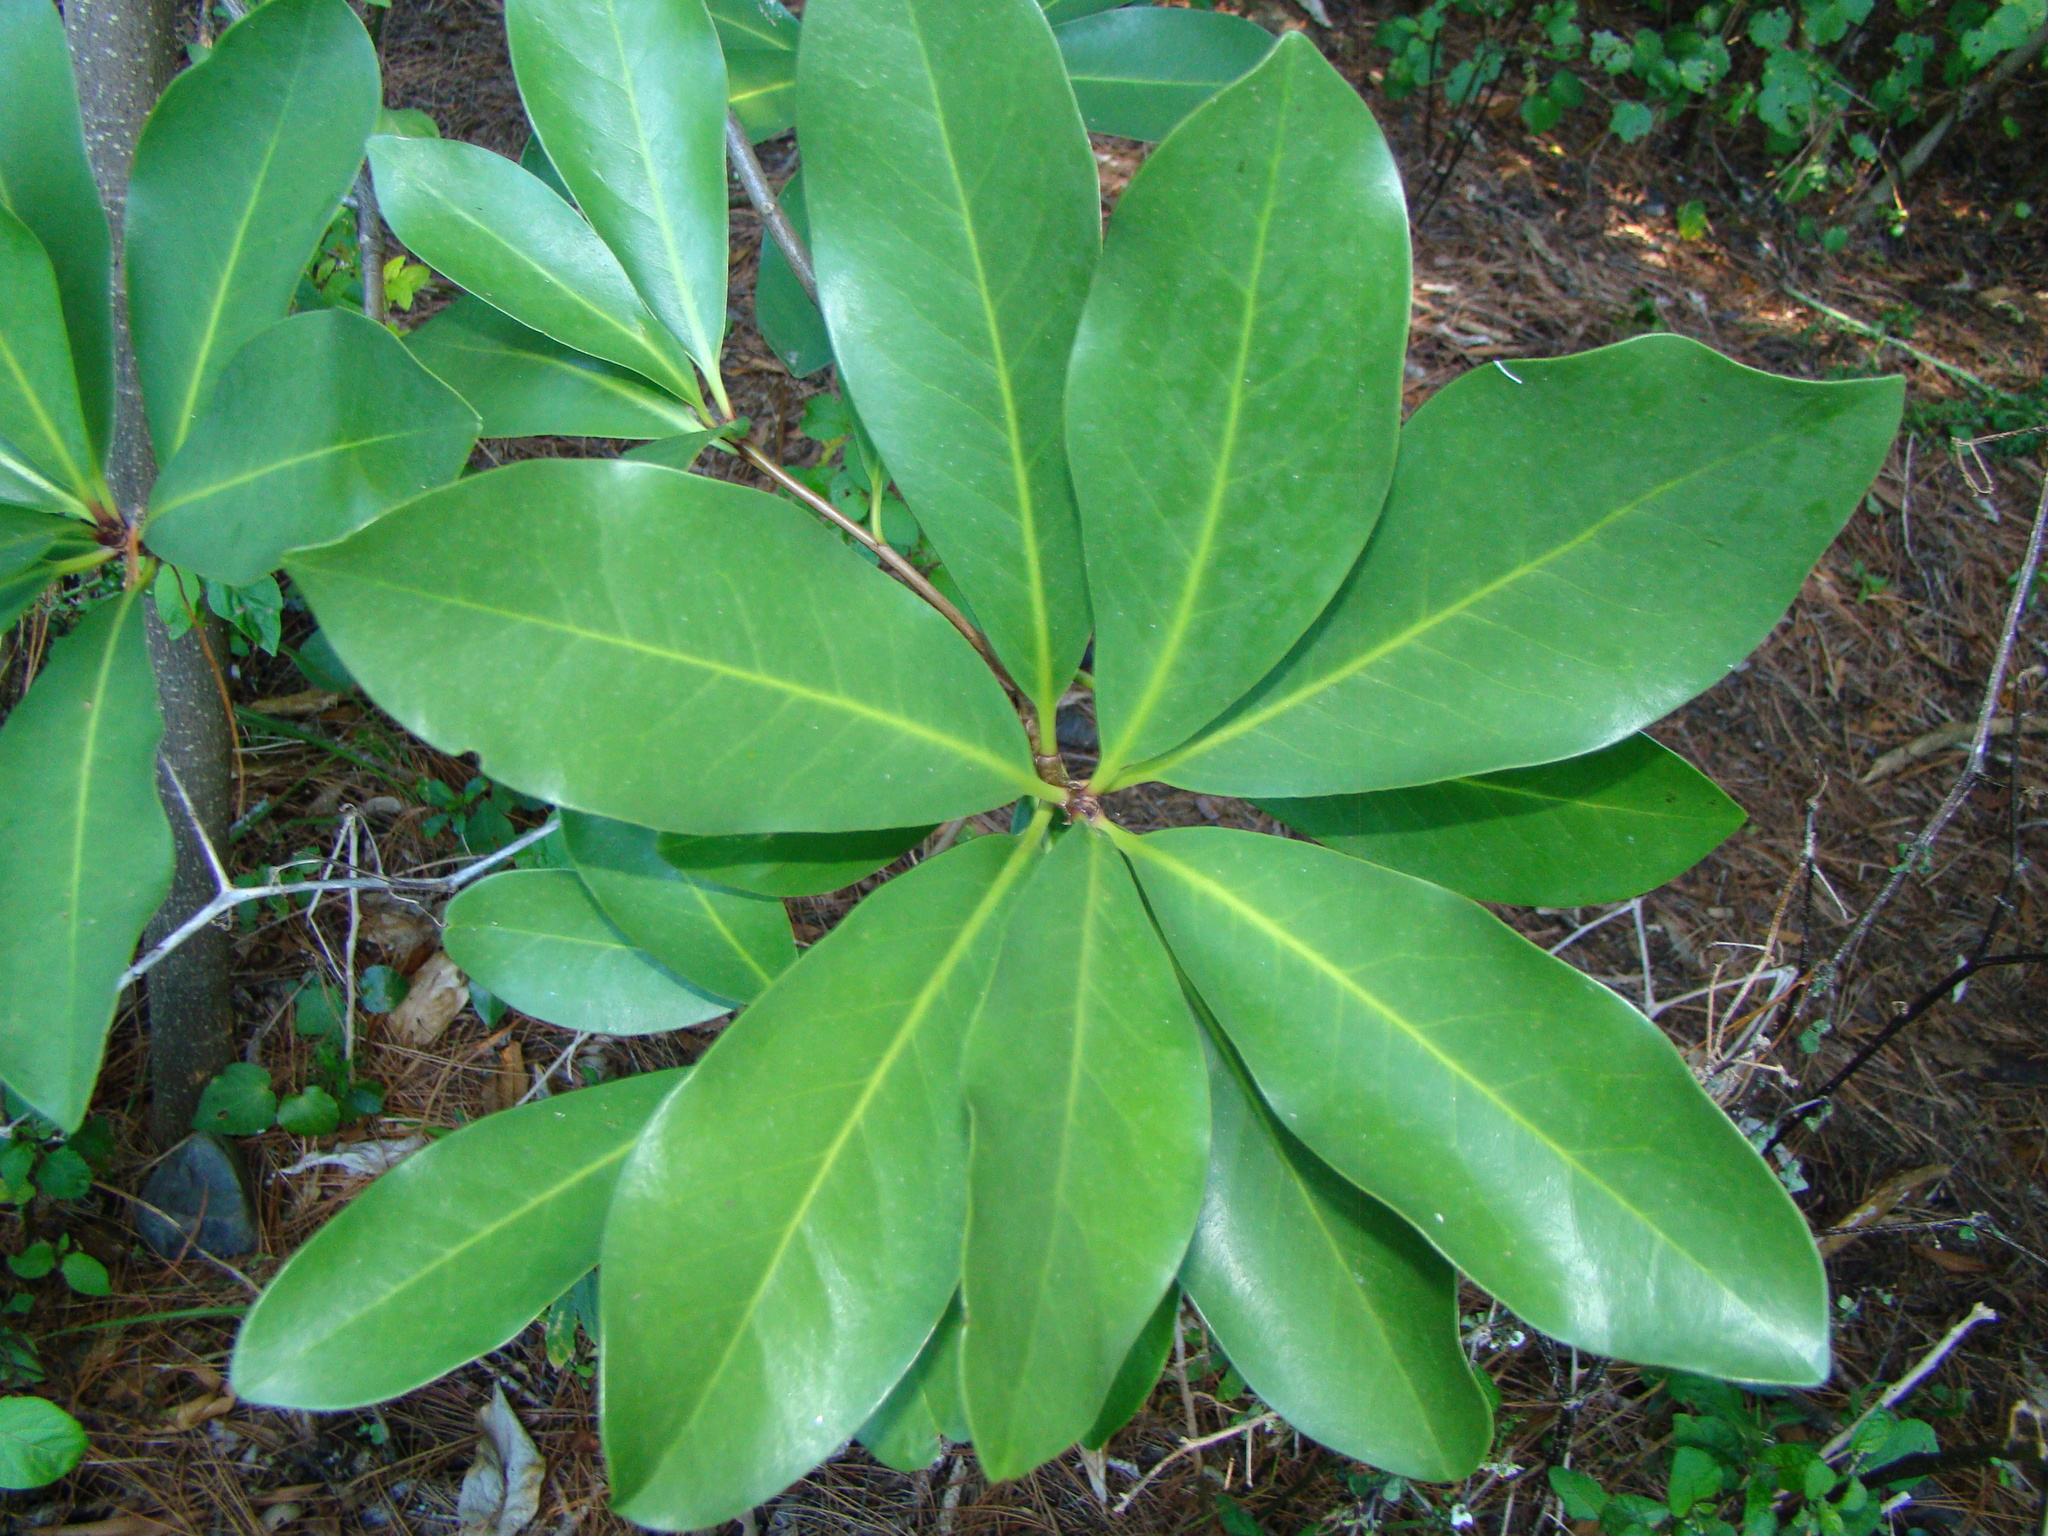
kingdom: Plantae
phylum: Tracheophyta
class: Magnoliopsida
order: Cucurbitales
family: Corynocarpaceae
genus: Corynocarpus
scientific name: Corynocarpus laevigatus
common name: New zealand laurel
